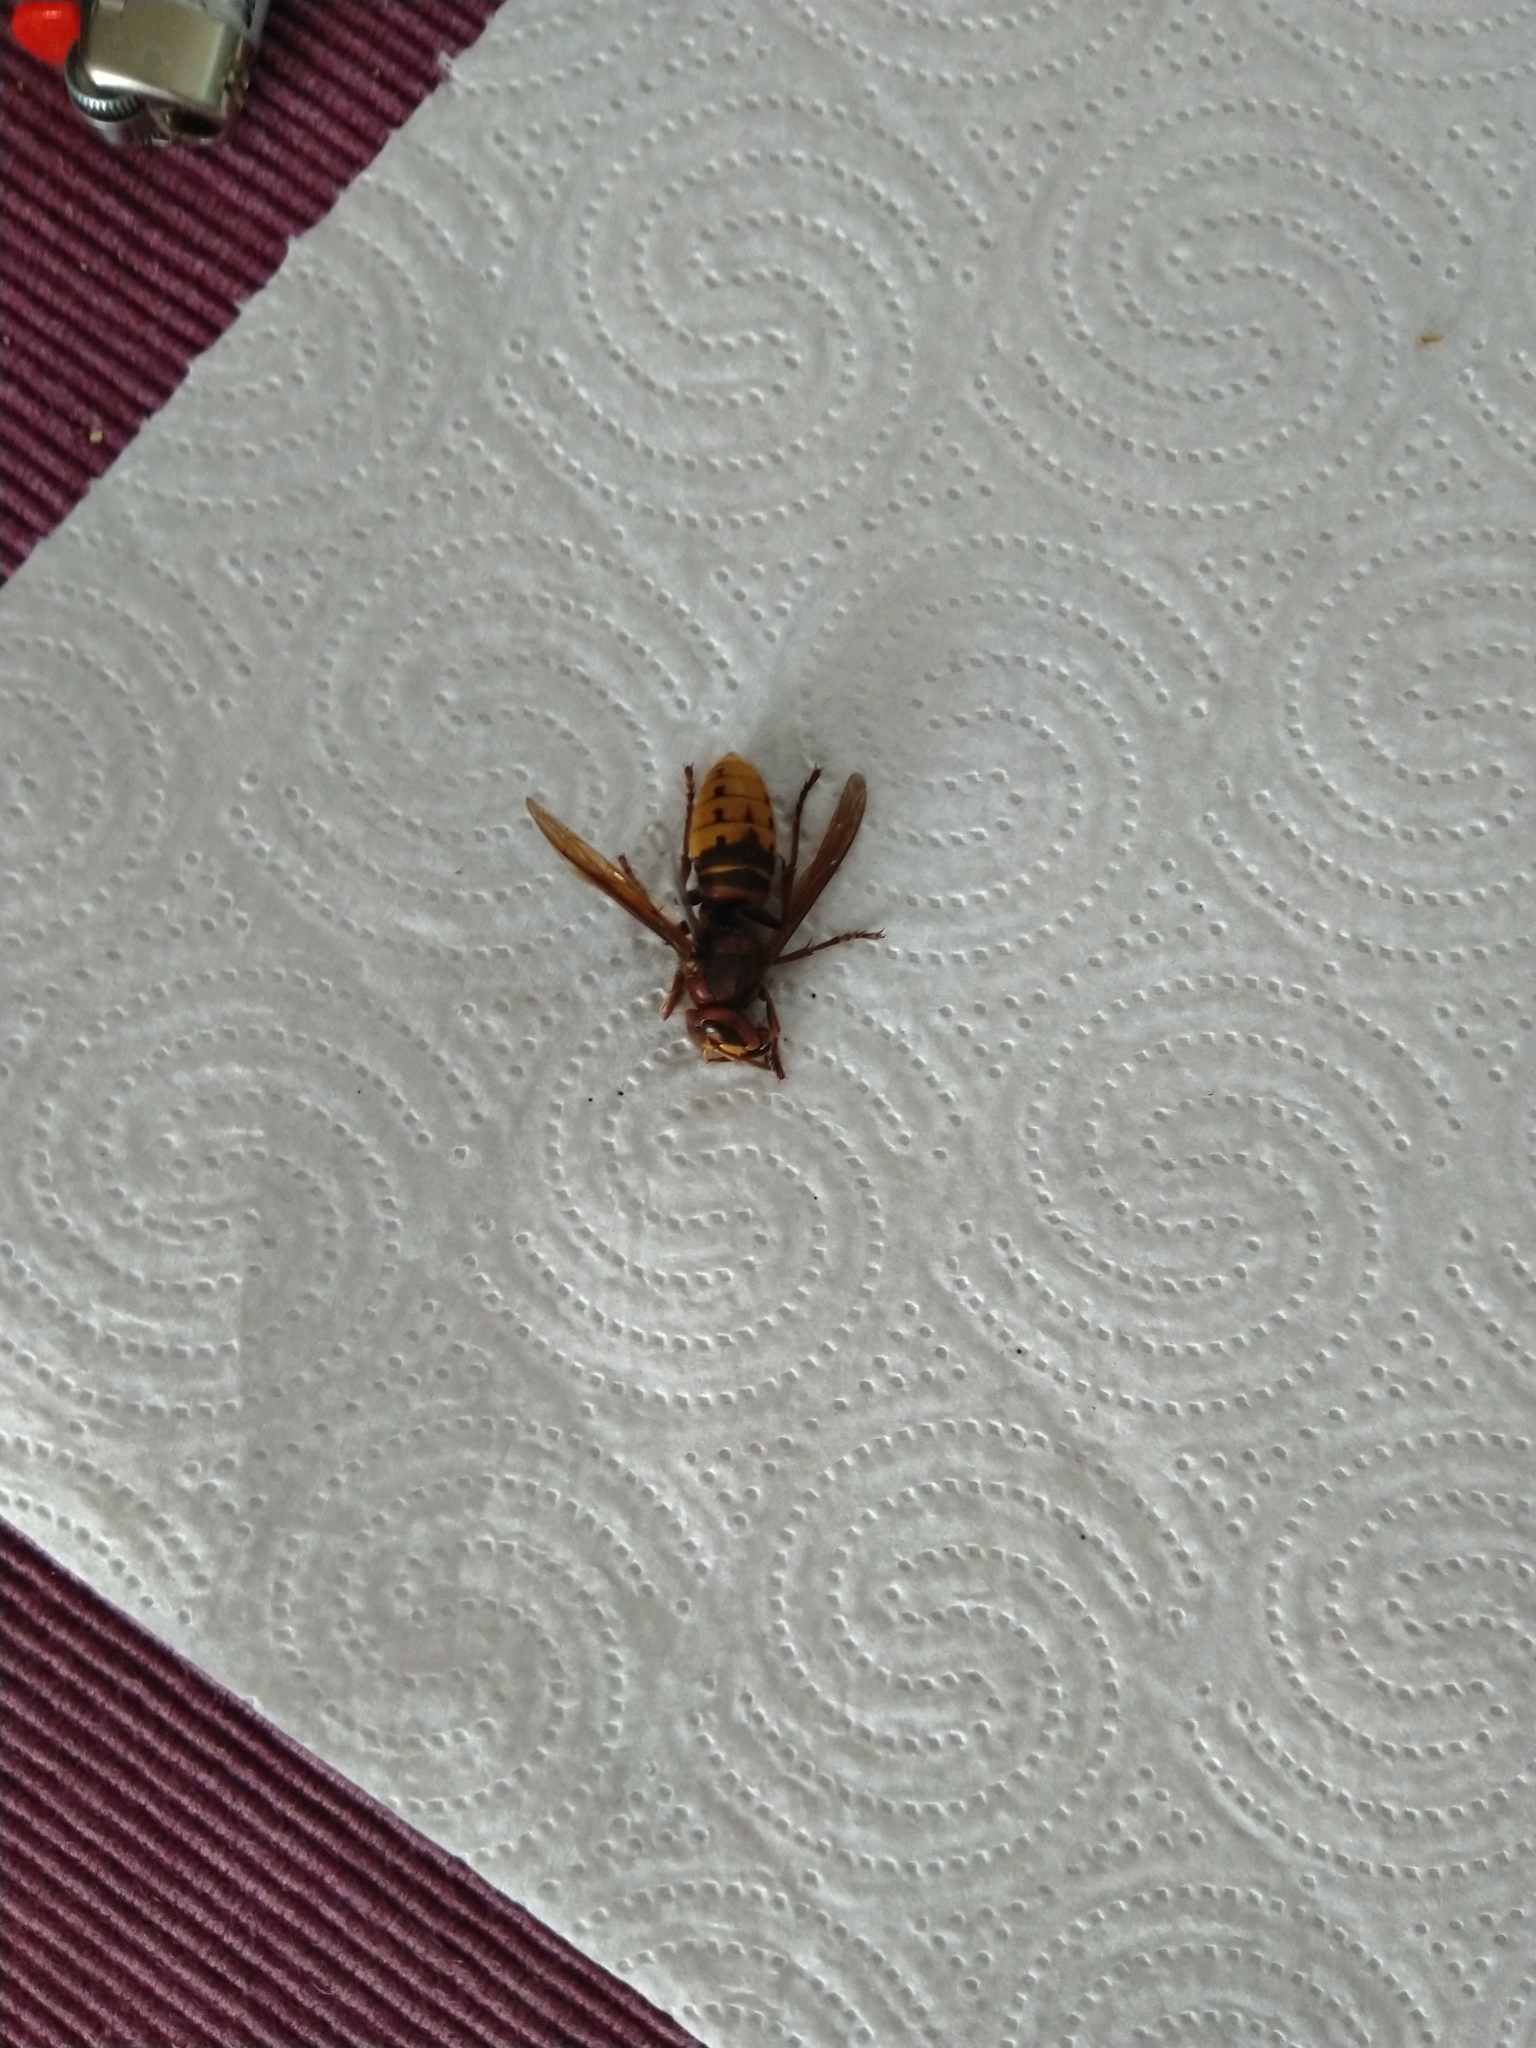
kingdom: Animalia
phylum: Arthropoda
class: Insecta
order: Hymenoptera
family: Vespidae
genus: Vespa
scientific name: Vespa crabro
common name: Hornet
